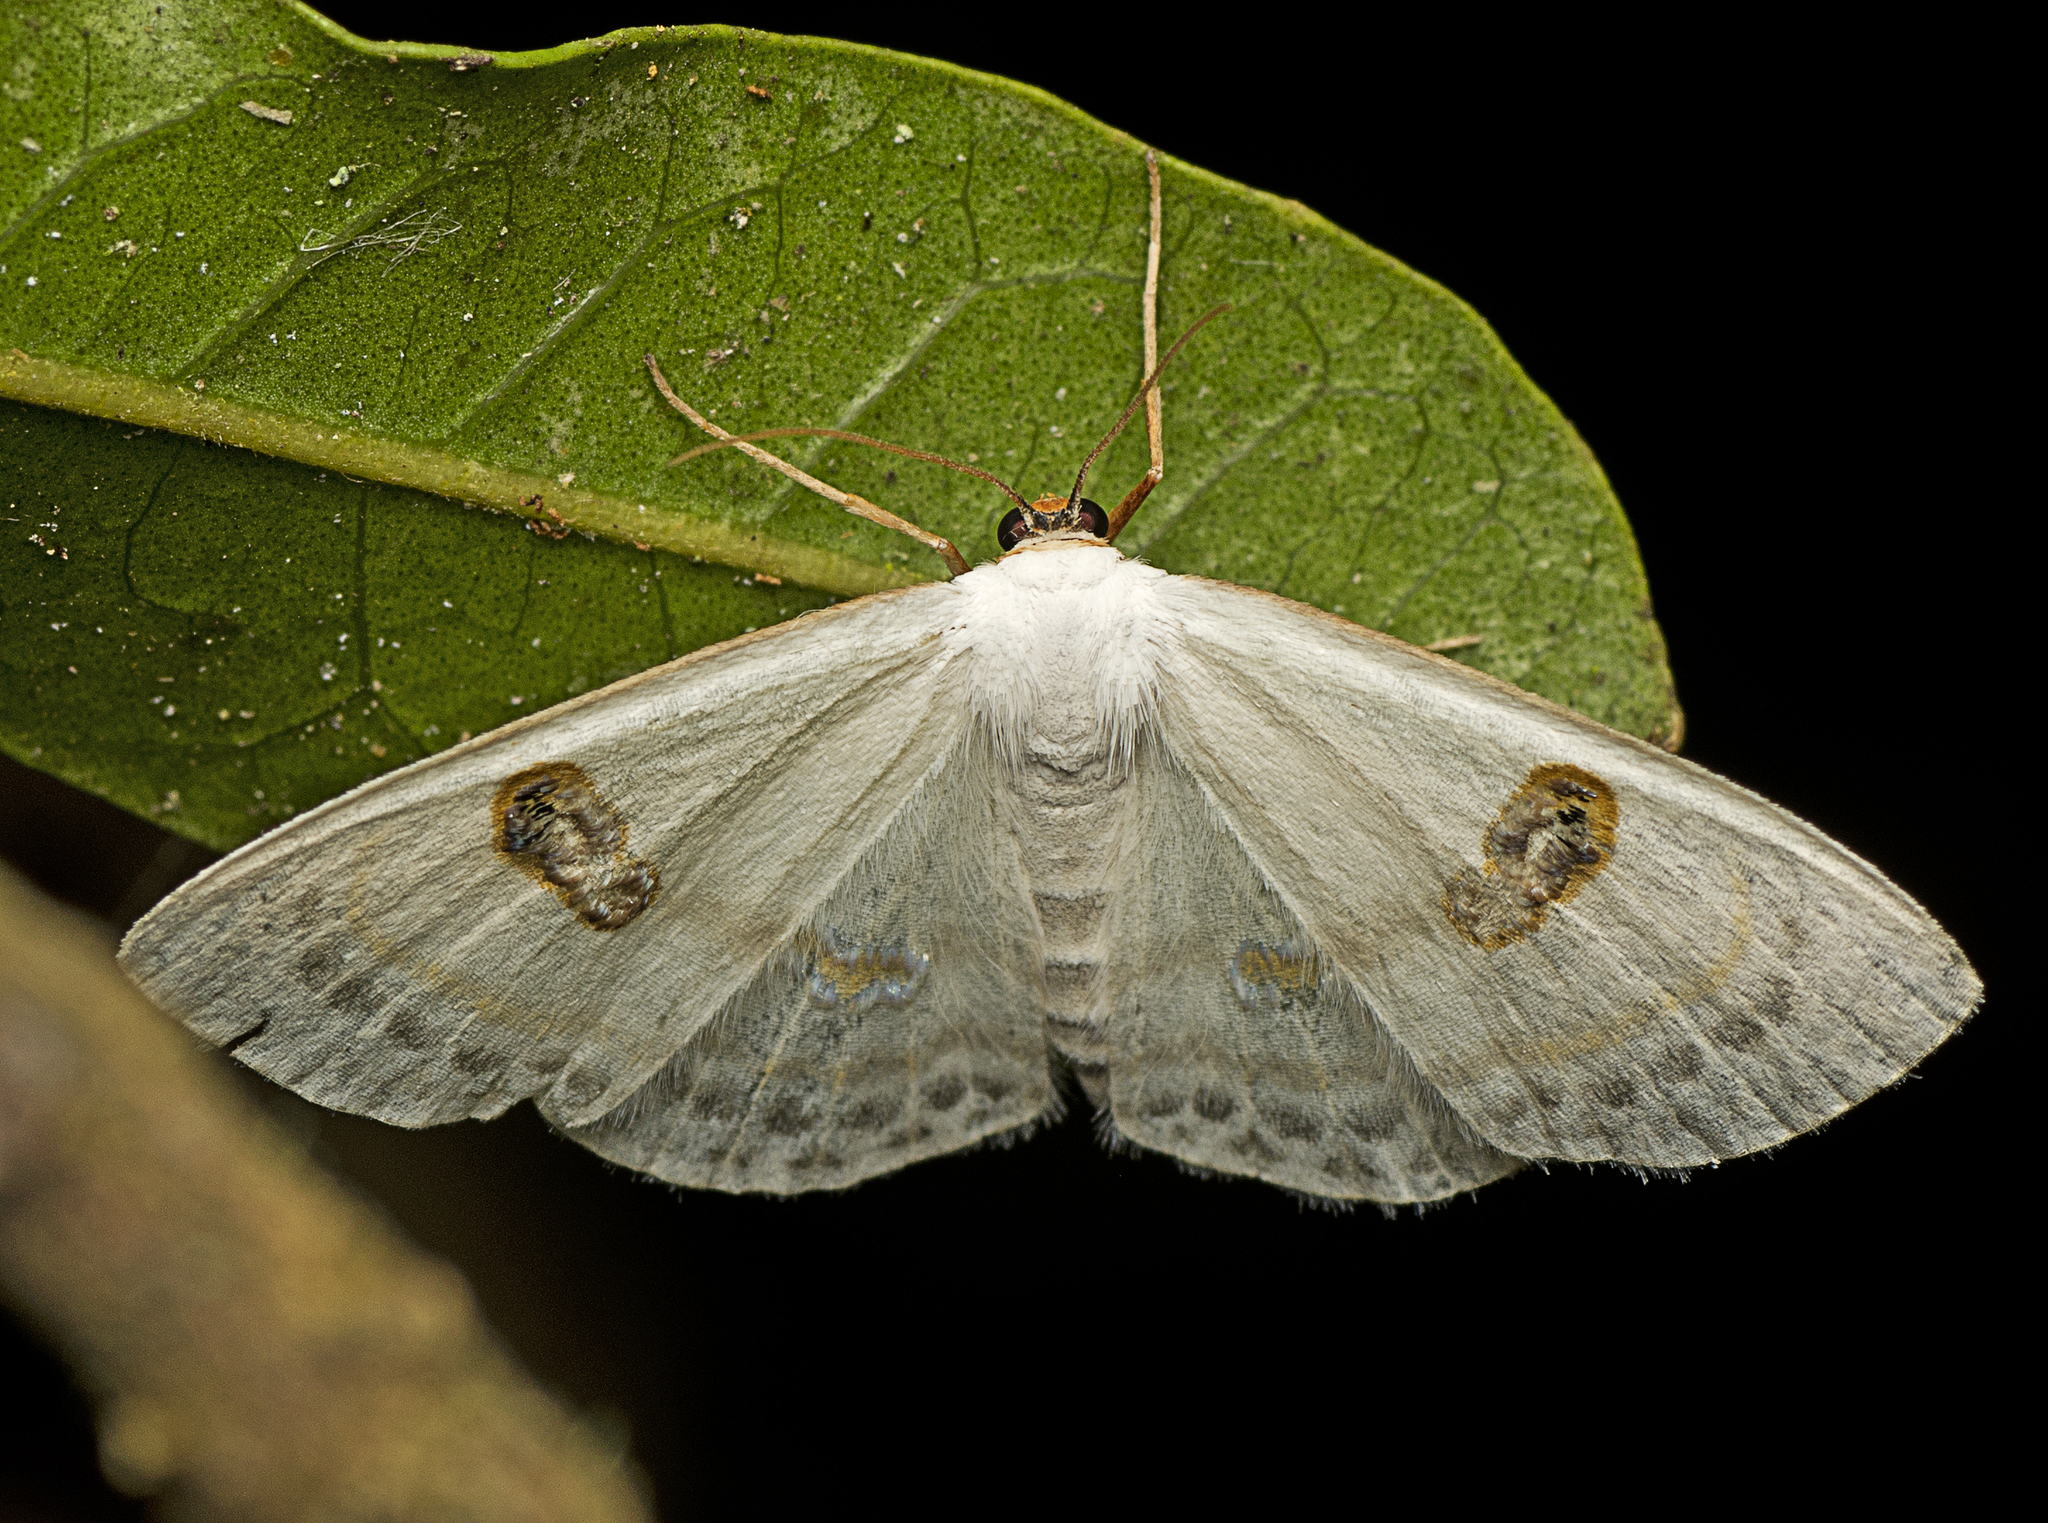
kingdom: Animalia
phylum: Arthropoda
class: Insecta
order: Lepidoptera
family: Geometridae
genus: Problepsis
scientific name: Problepsis sancta
